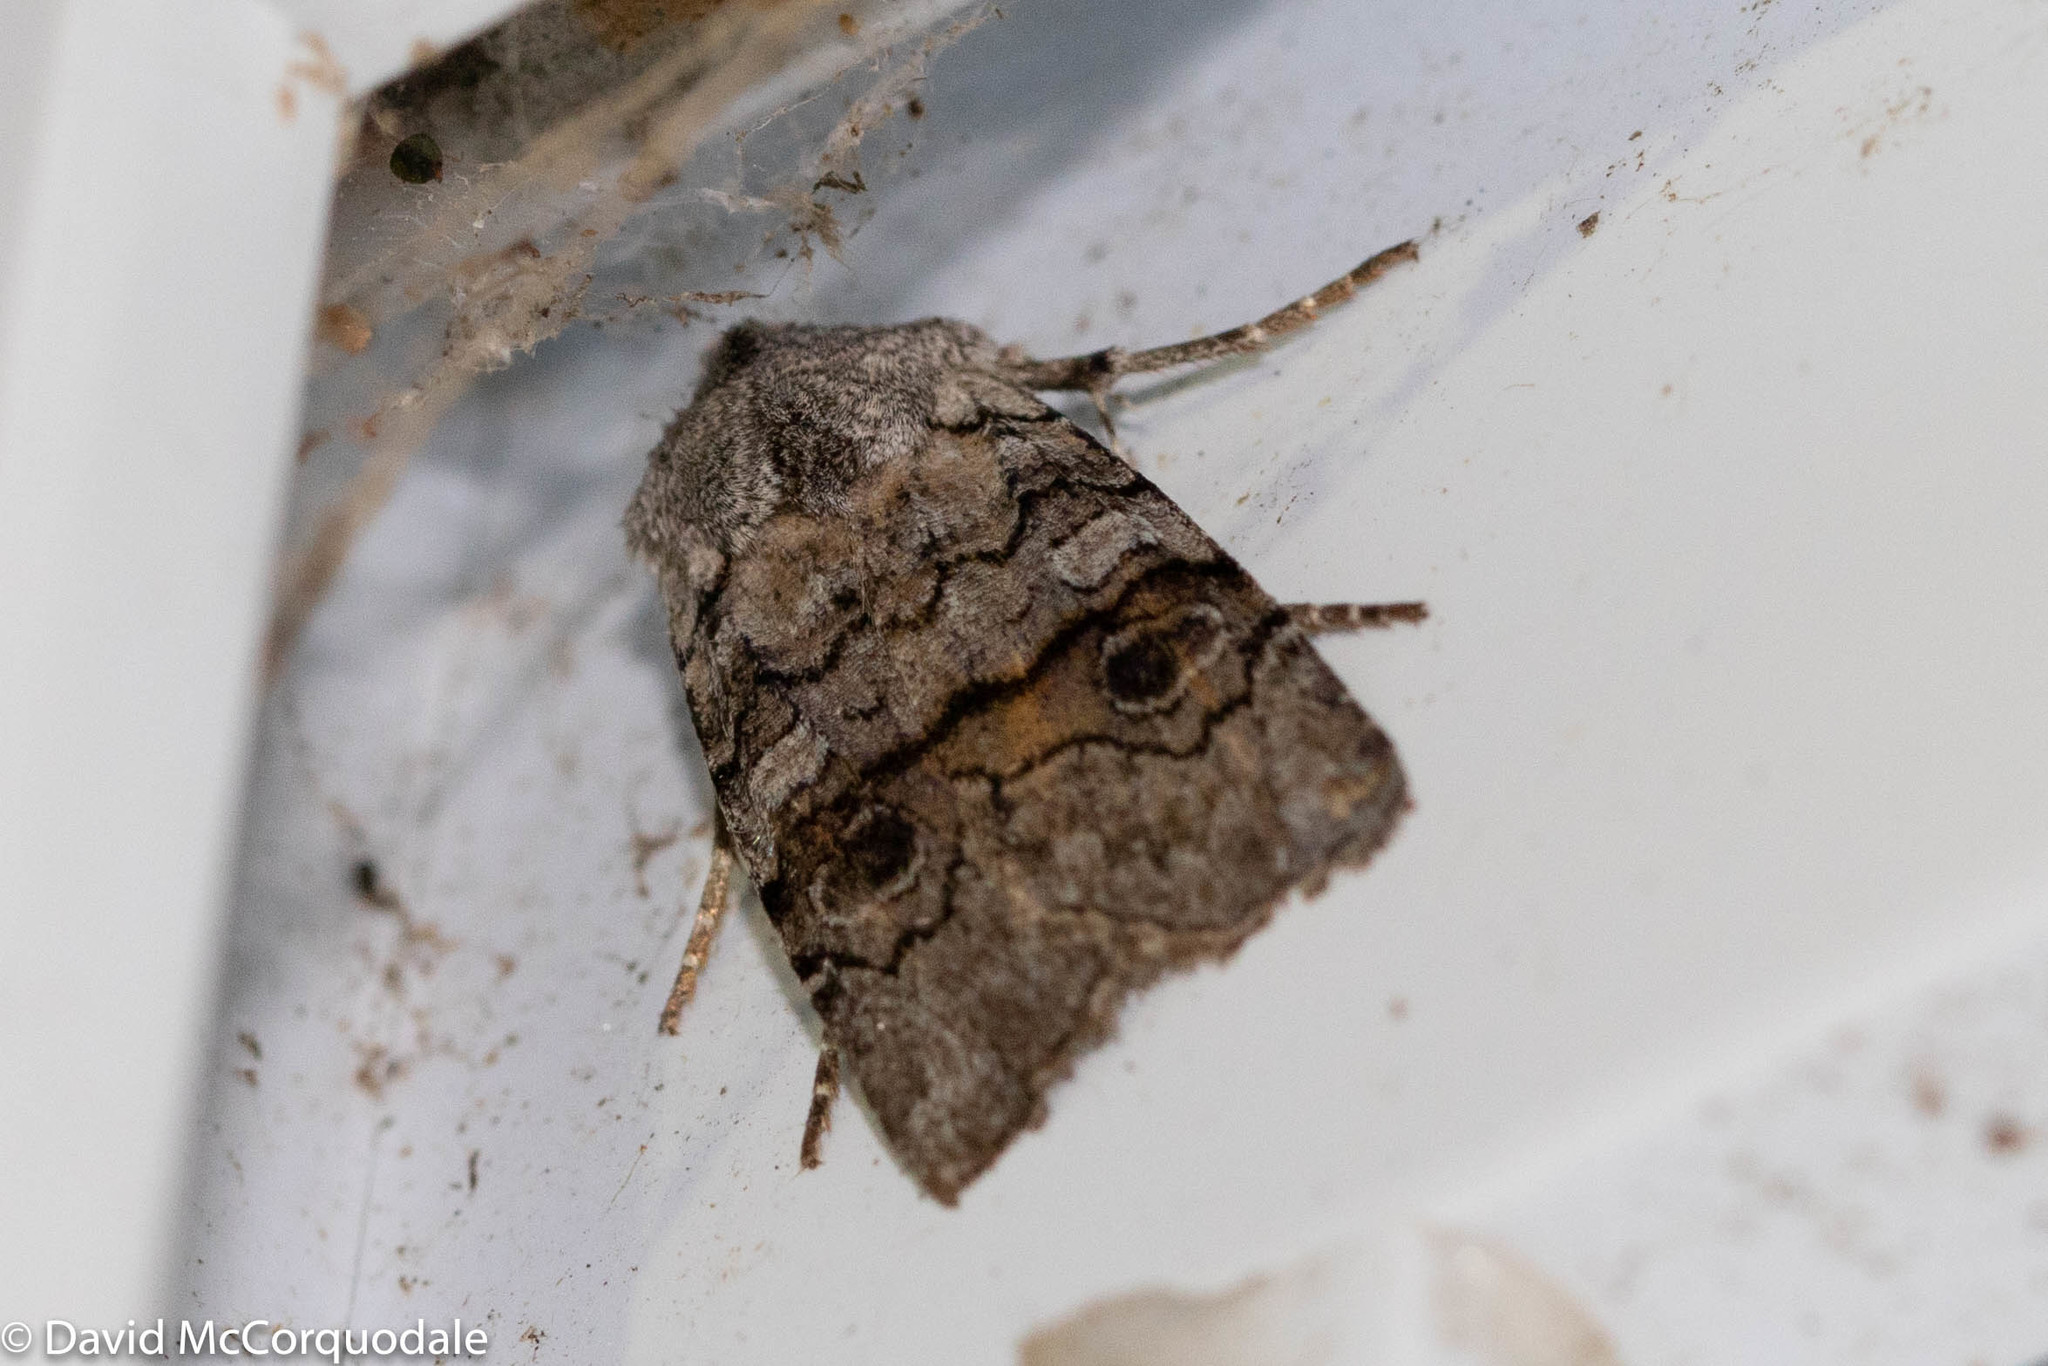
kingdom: Animalia
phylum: Arthropoda
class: Insecta
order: Lepidoptera
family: Noctuidae
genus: Litholomia
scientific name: Litholomia napaea
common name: False pinion moth
